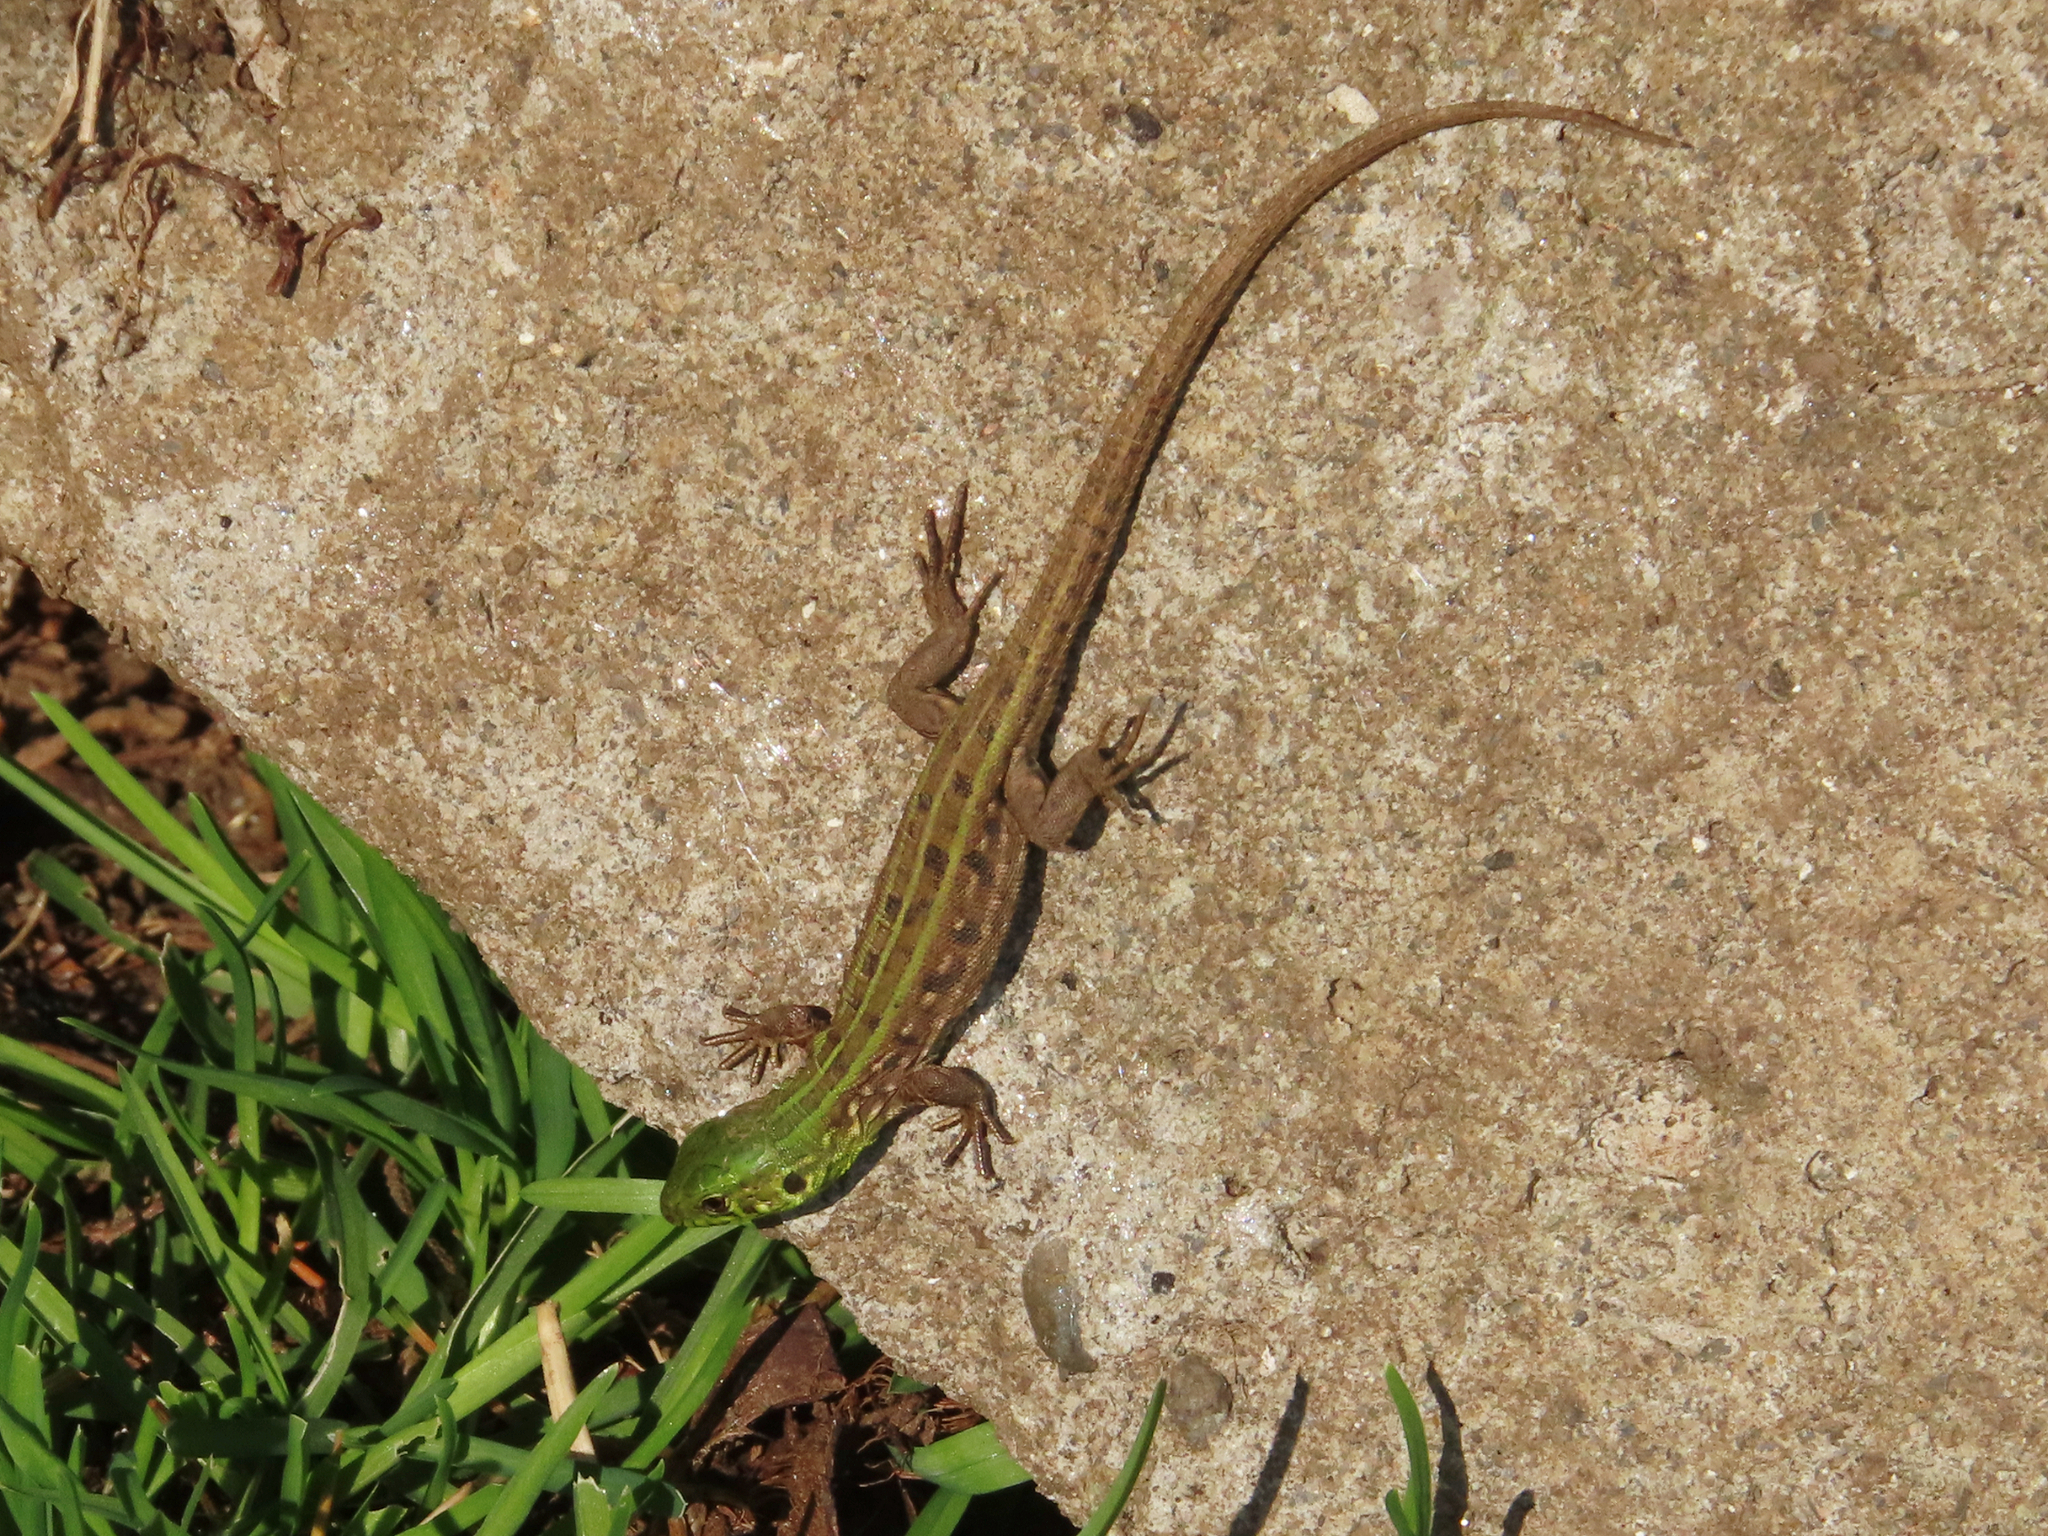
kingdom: Animalia
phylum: Chordata
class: Squamata
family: Lacertidae
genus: Lacerta
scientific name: Lacerta agilis
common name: Sand lizard
